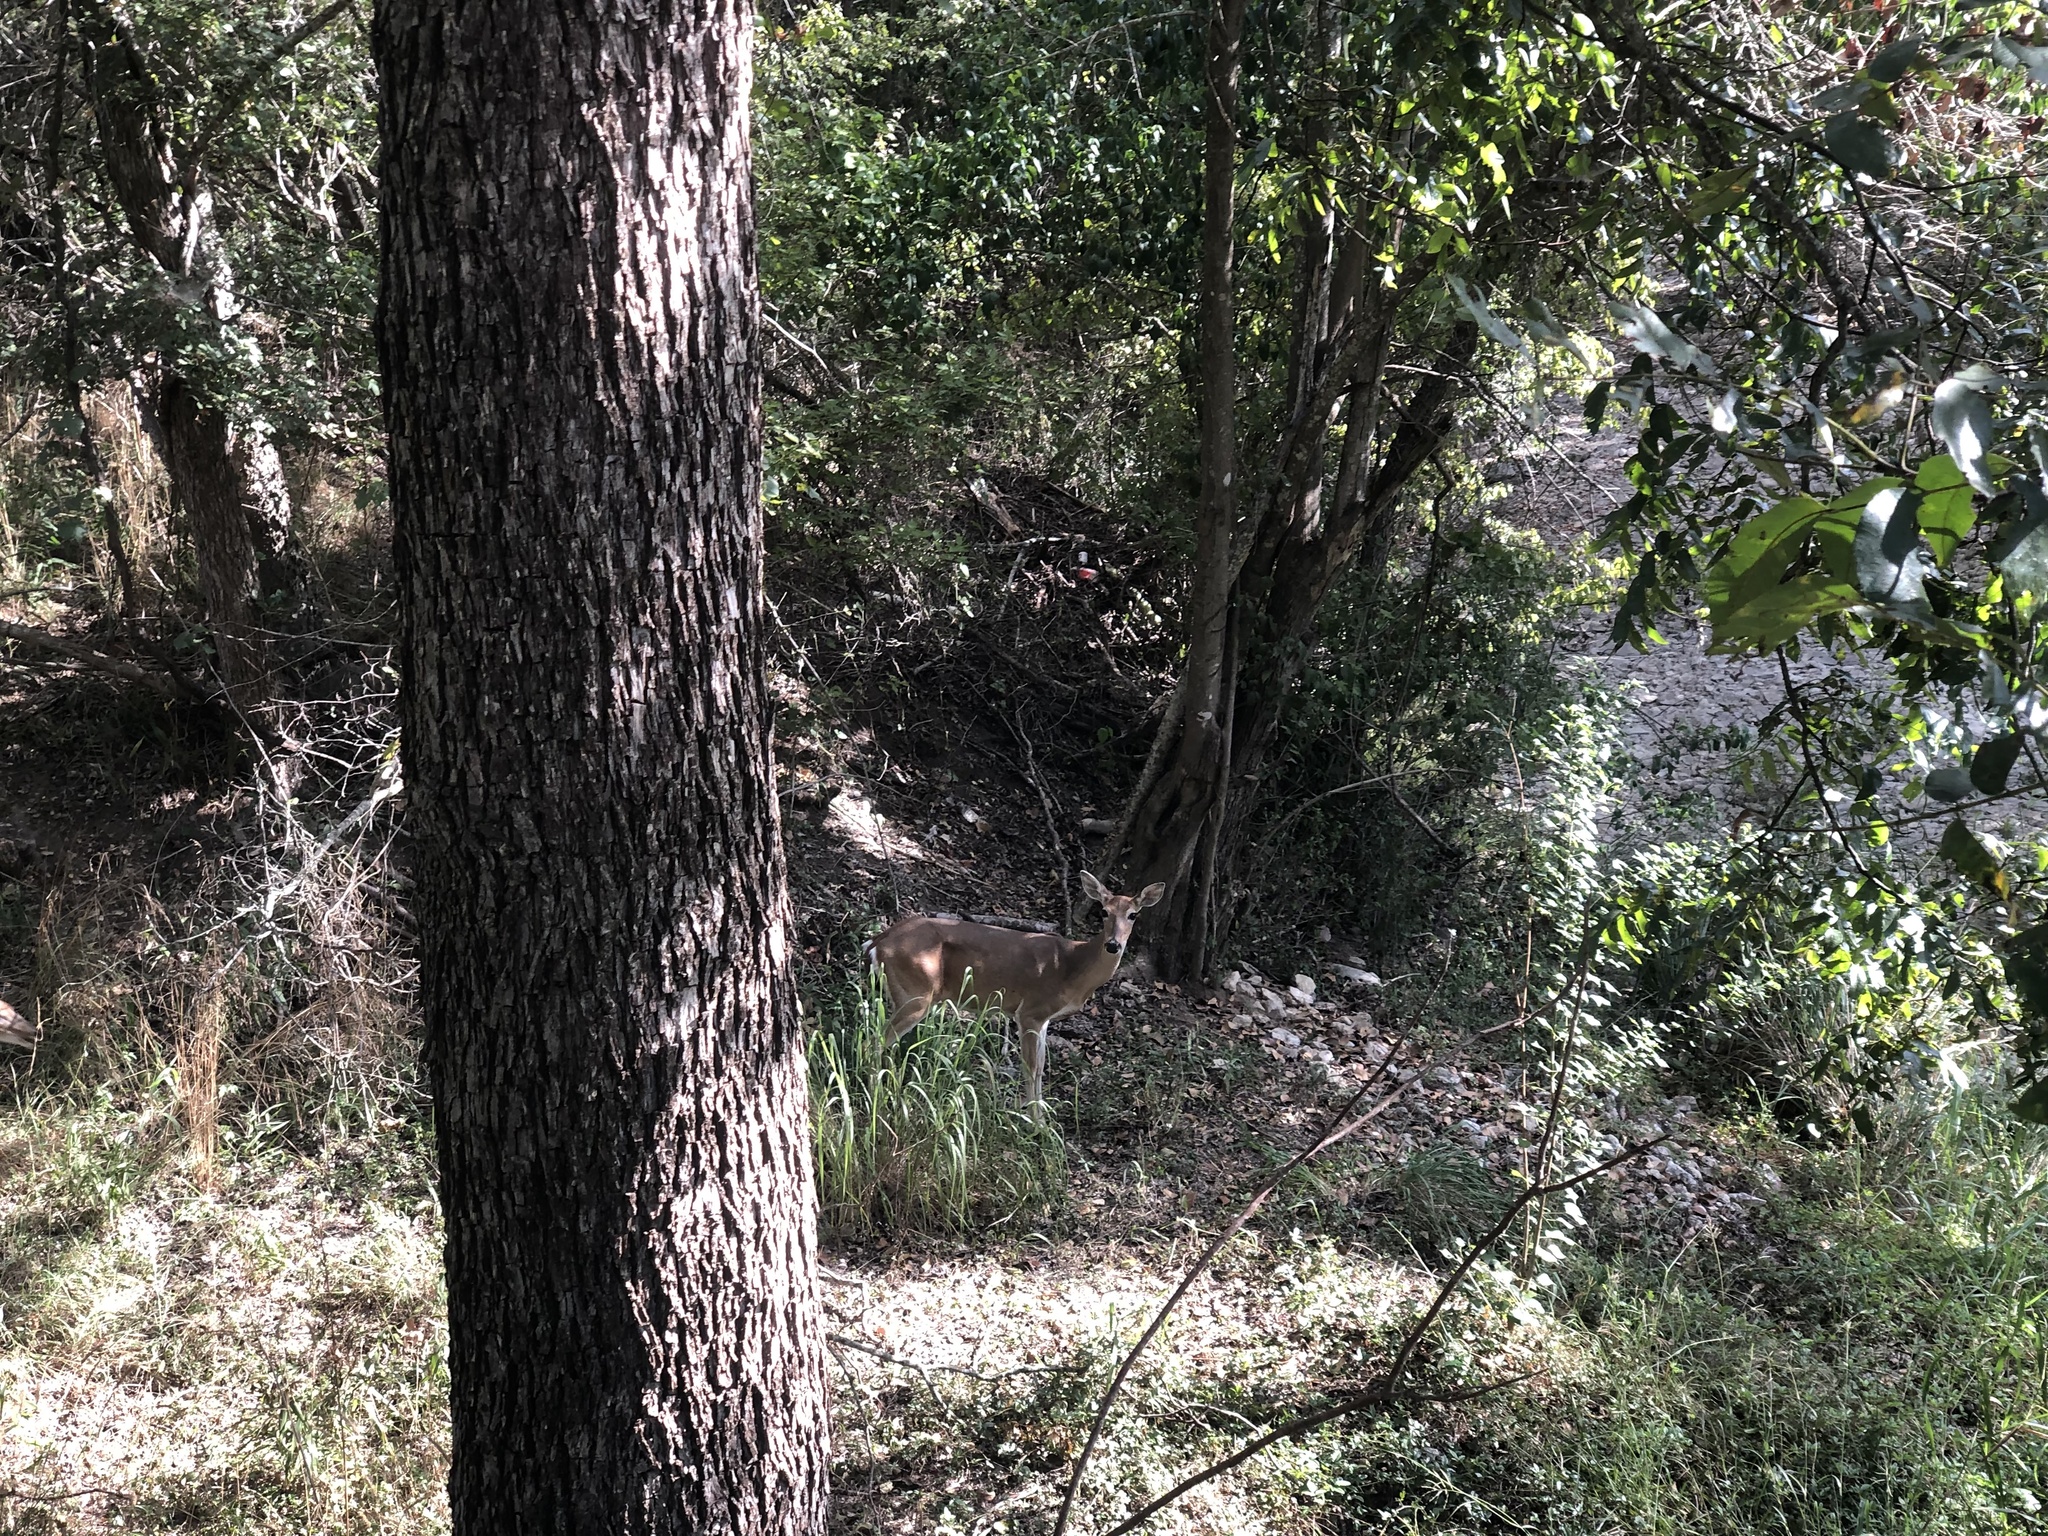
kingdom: Animalia
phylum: Chordata
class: Mammalia
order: Artiodactyla
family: Cervidae
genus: Odocoileus
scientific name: Odocoileus virginianus
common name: White-tailed deer
